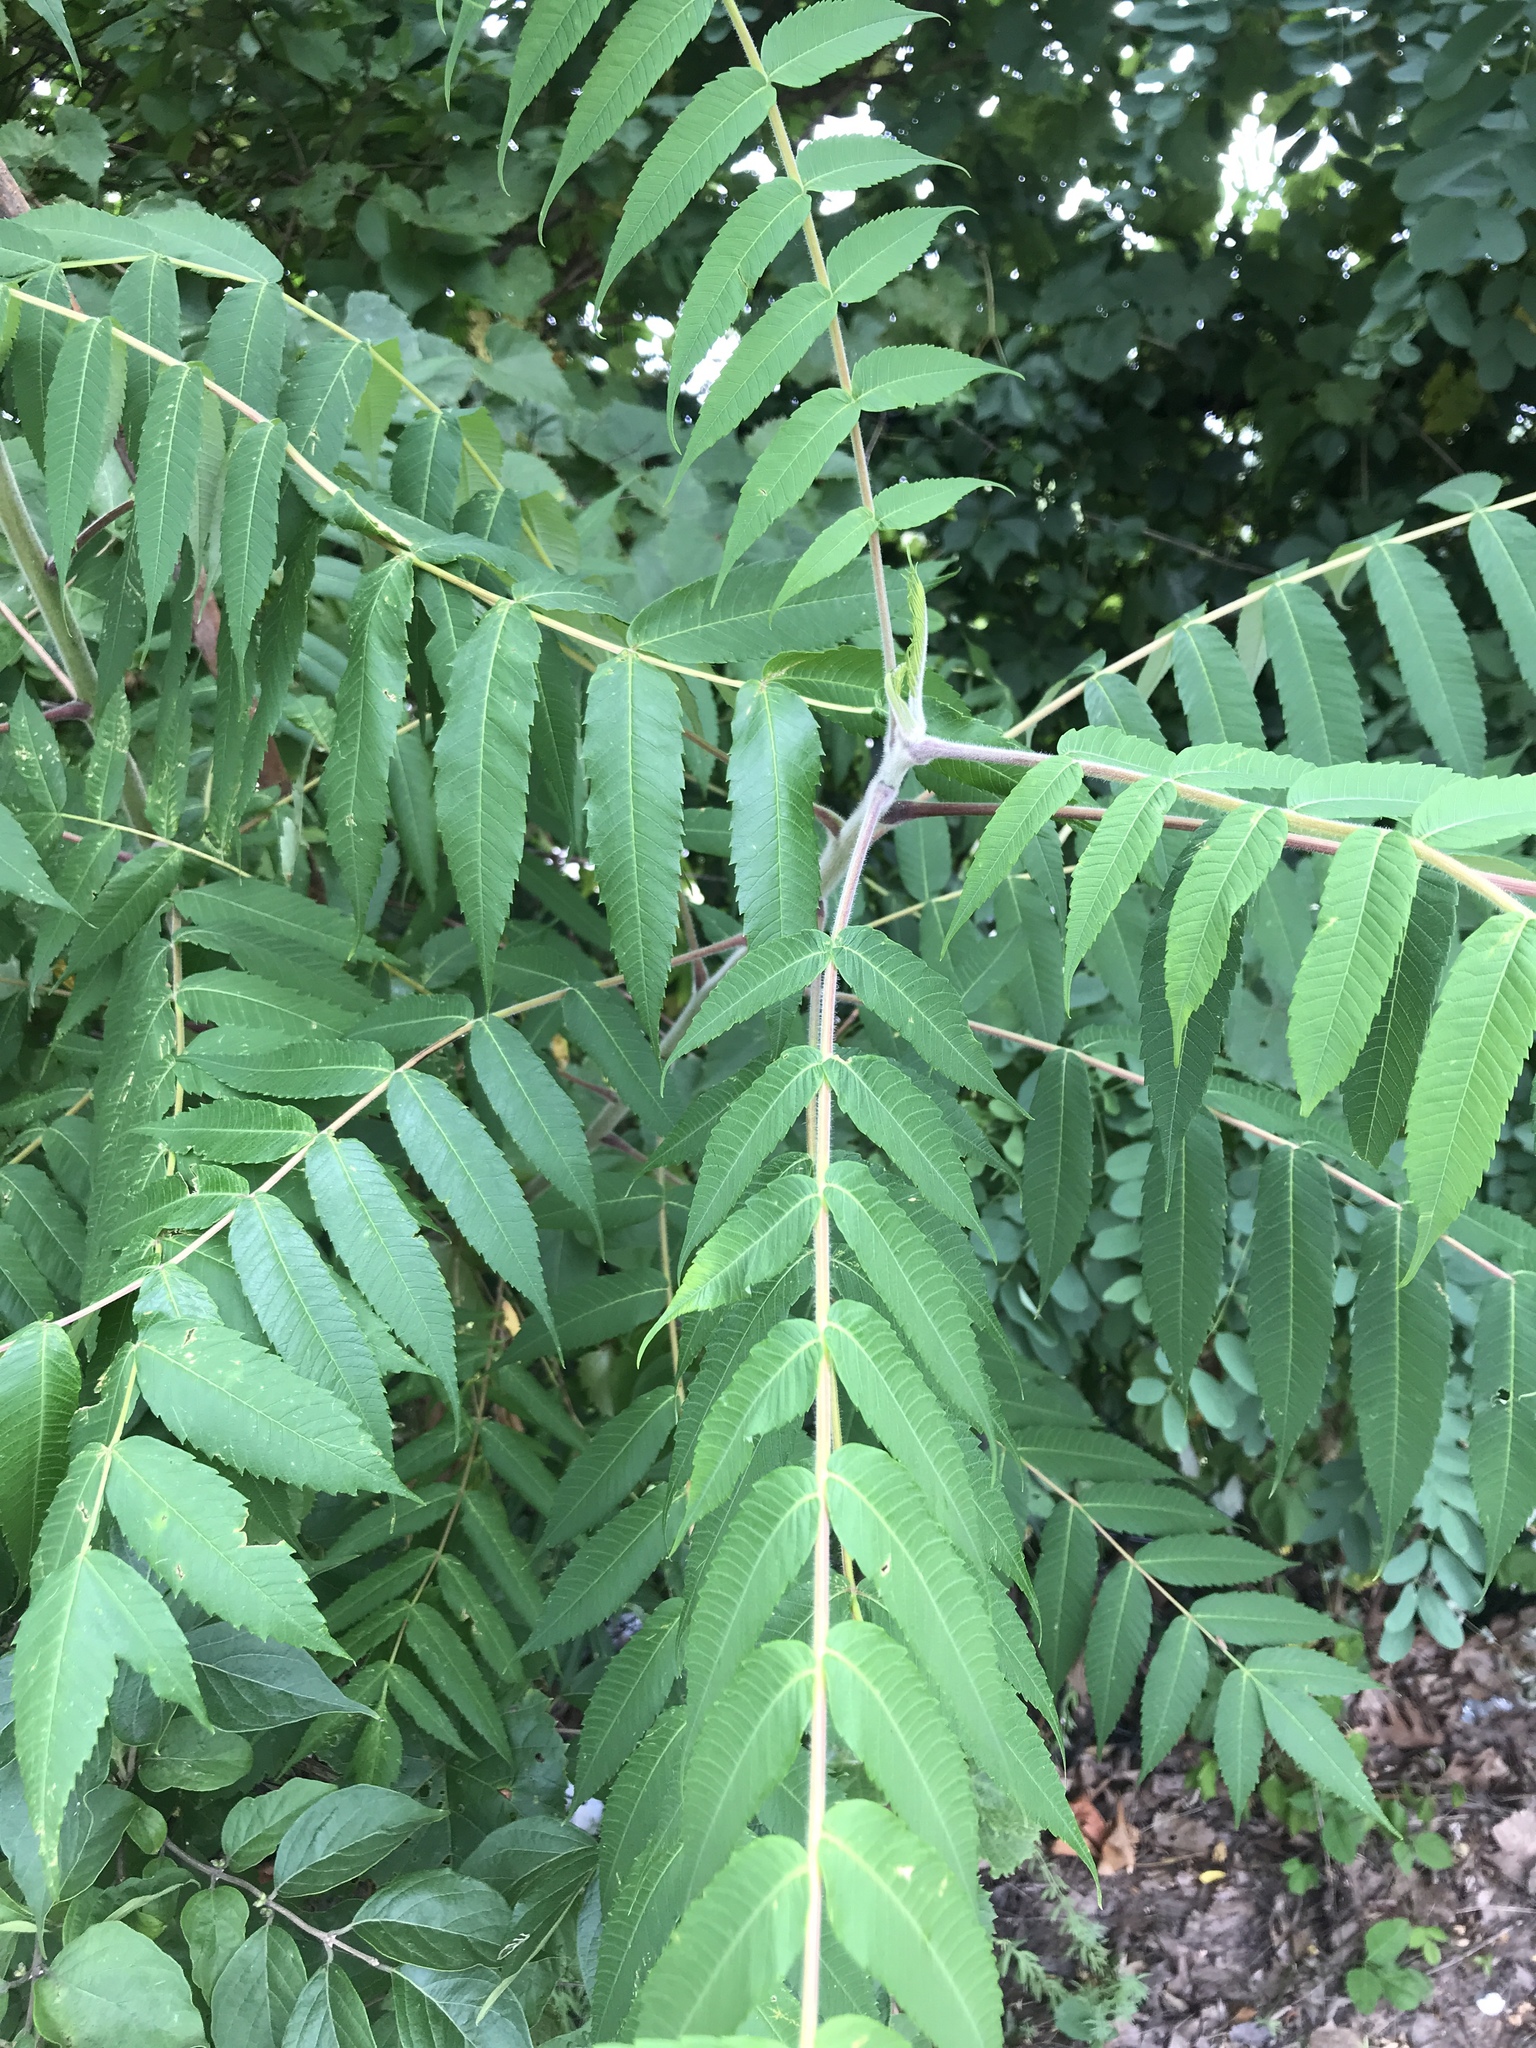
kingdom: Plantae
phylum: Tracheophyta
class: Magnoliopsida
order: Sapindales
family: Anacardiaceae
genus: Rhus
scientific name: Rhus typhina
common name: Staghorn sumac
